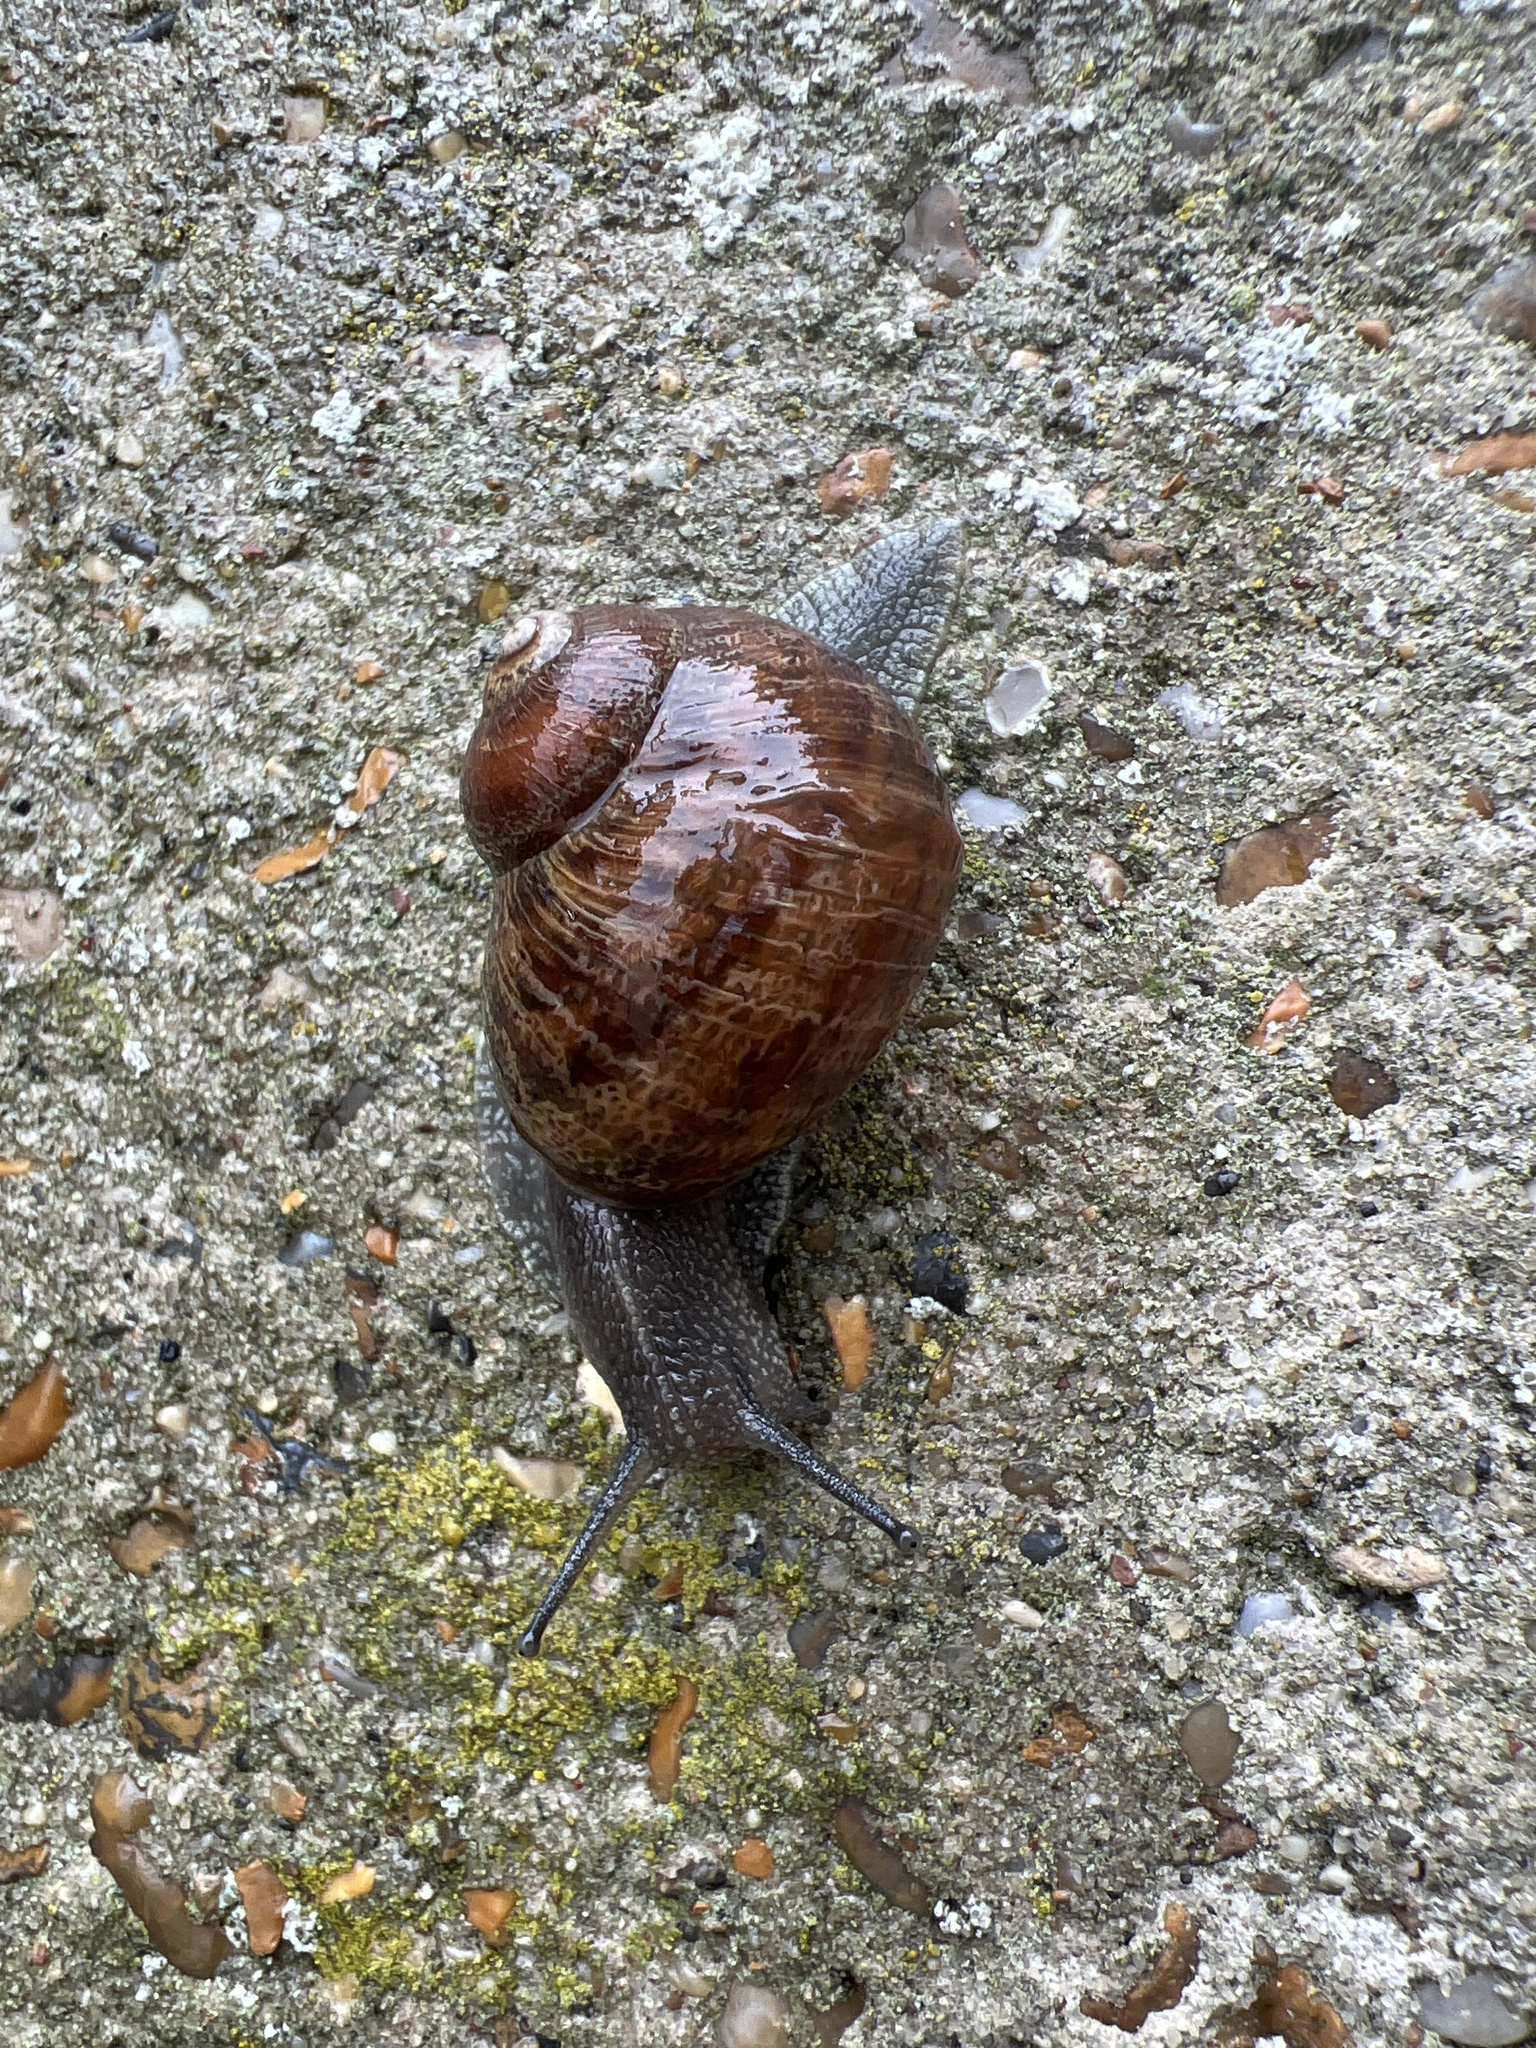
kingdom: Animalia
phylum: Mollusca
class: Gastropoda
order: Stylommatophora
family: Helicidae
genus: Cornu
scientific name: Cornu aspersum
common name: Brown garden snail
